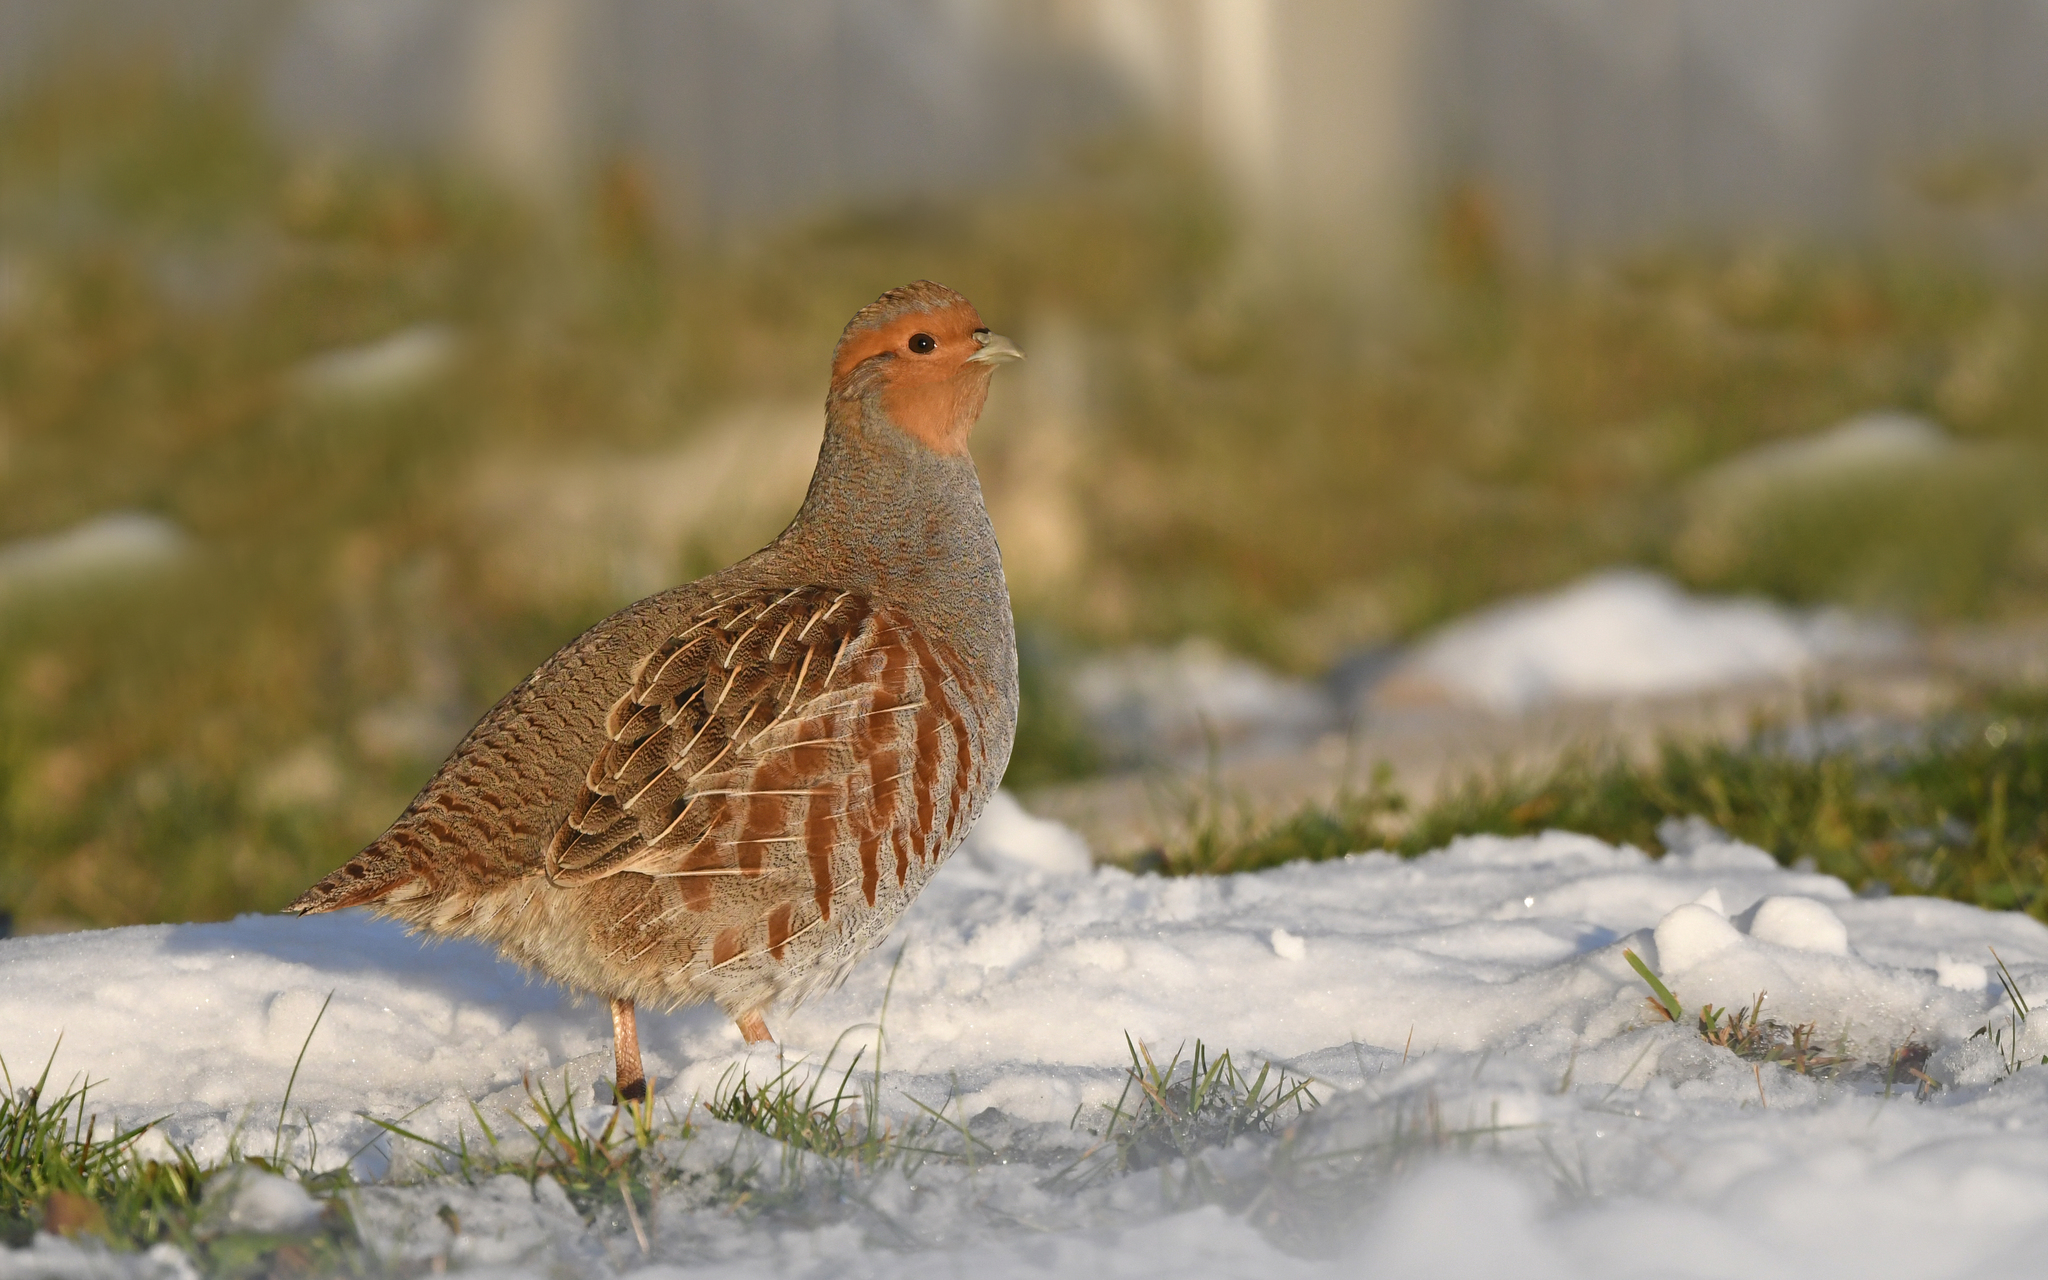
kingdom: Animalia
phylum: Chordata
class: Aves
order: Galliformes
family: Phasianidae
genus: Perdix
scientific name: Perdix perdix
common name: Grey partridge
